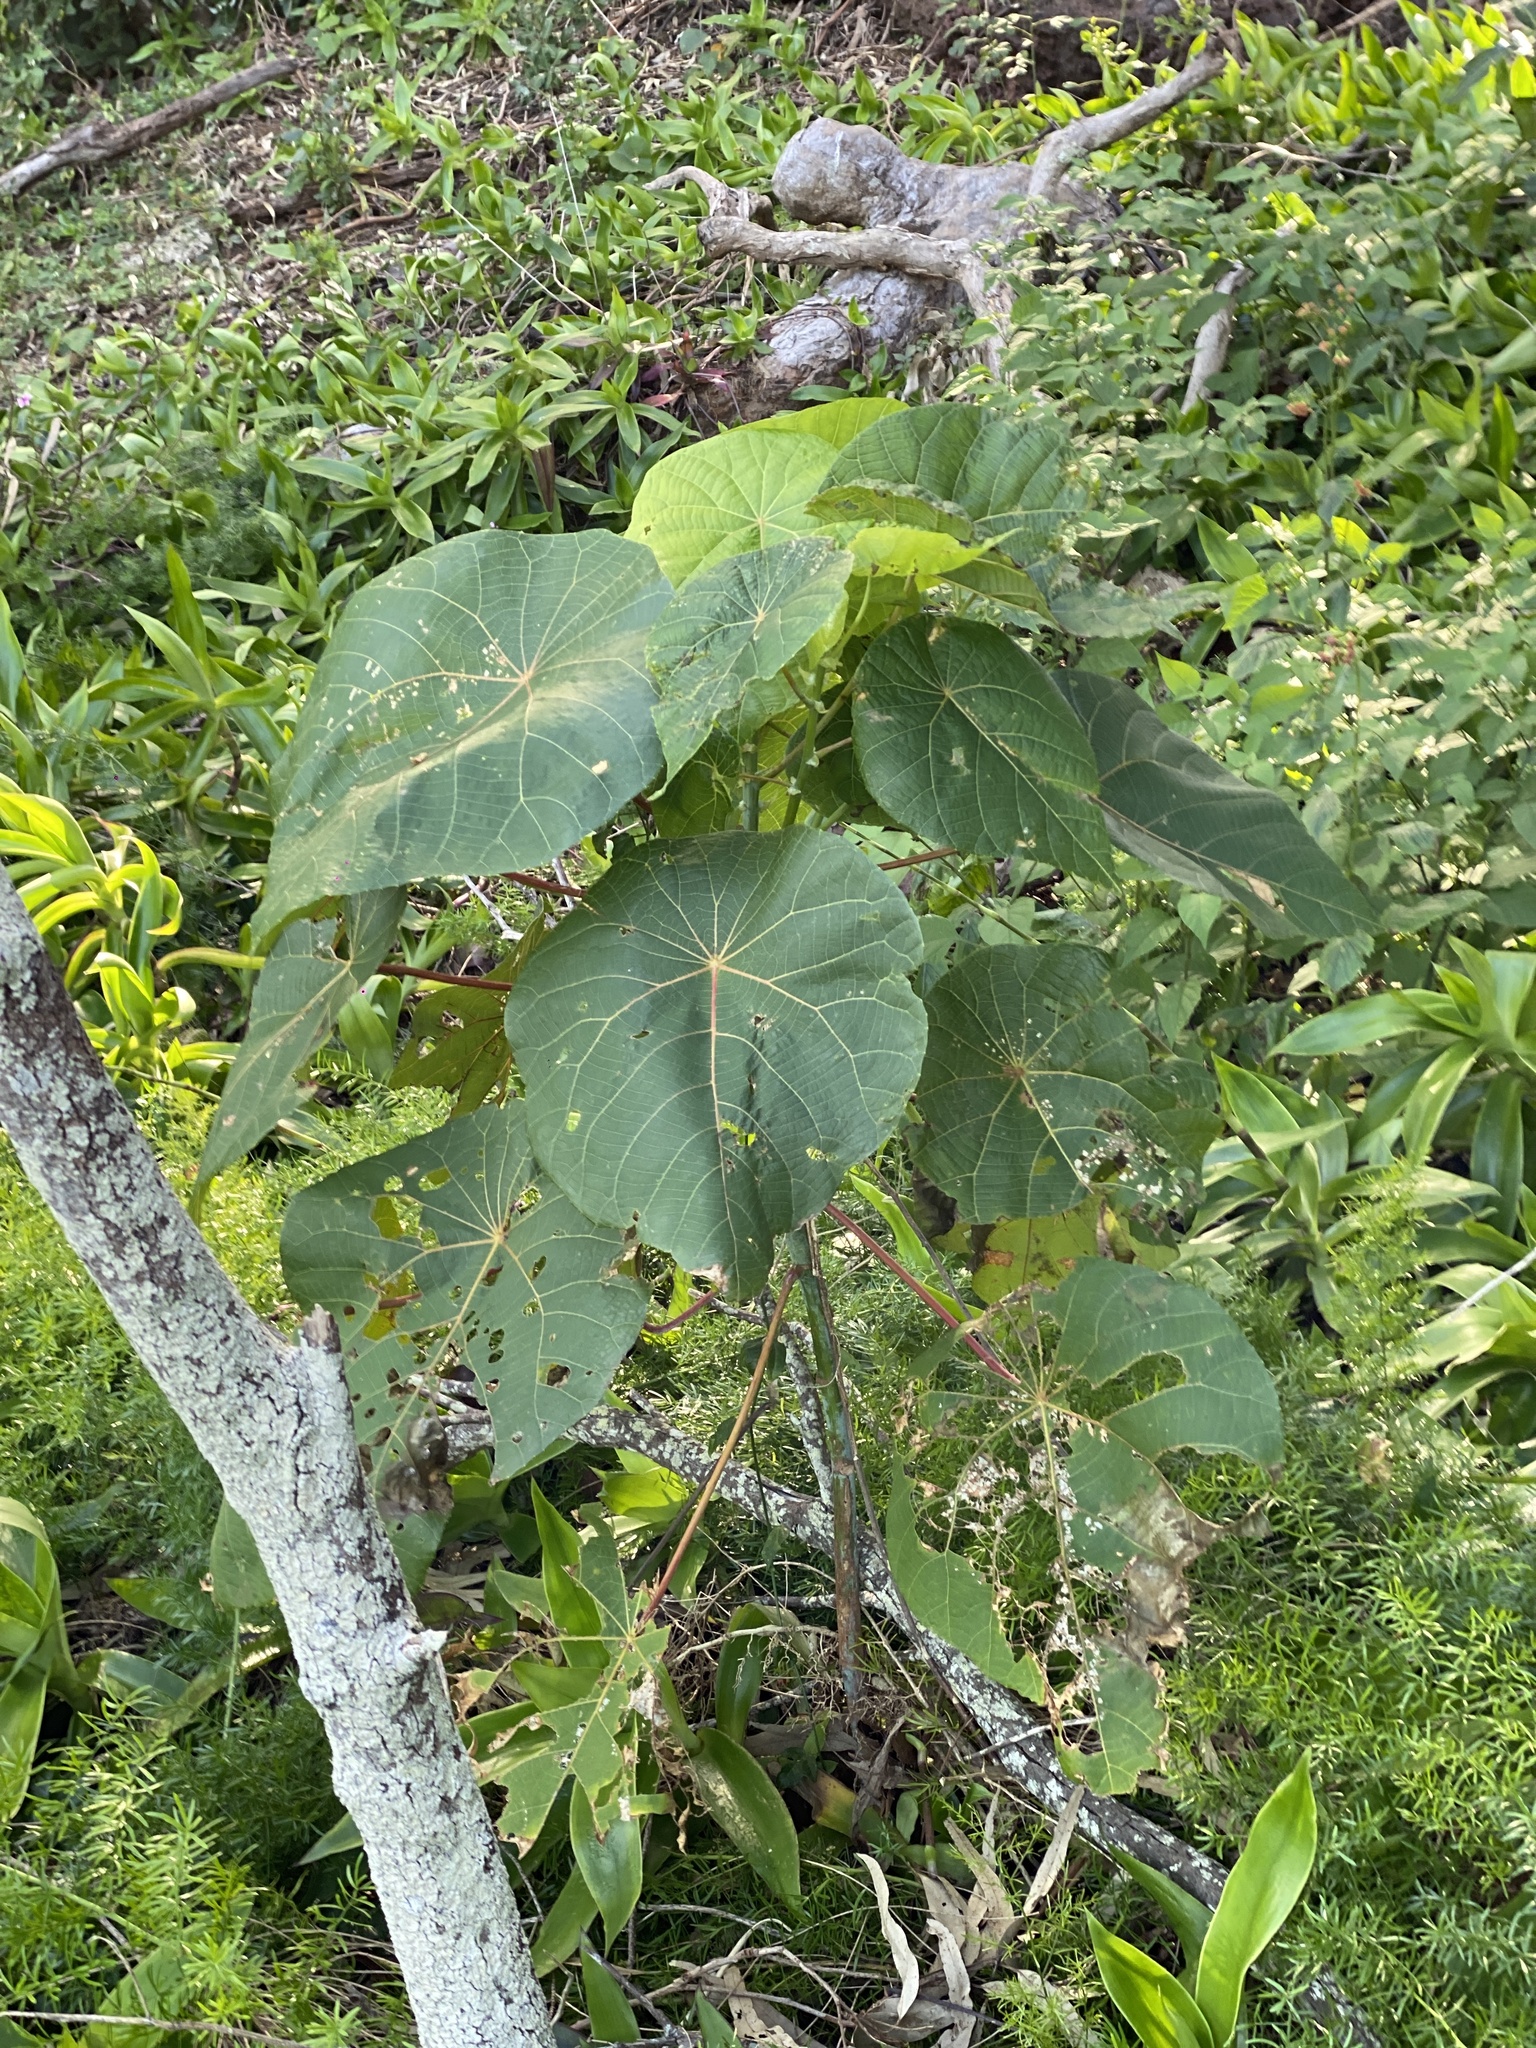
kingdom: Plantae
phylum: Tracheophyta
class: Magnoliopsida
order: Malpighiales
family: Euphorbiaceae
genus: Macaranga
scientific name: Macaranga tanarius
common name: Parasol leaf tree
